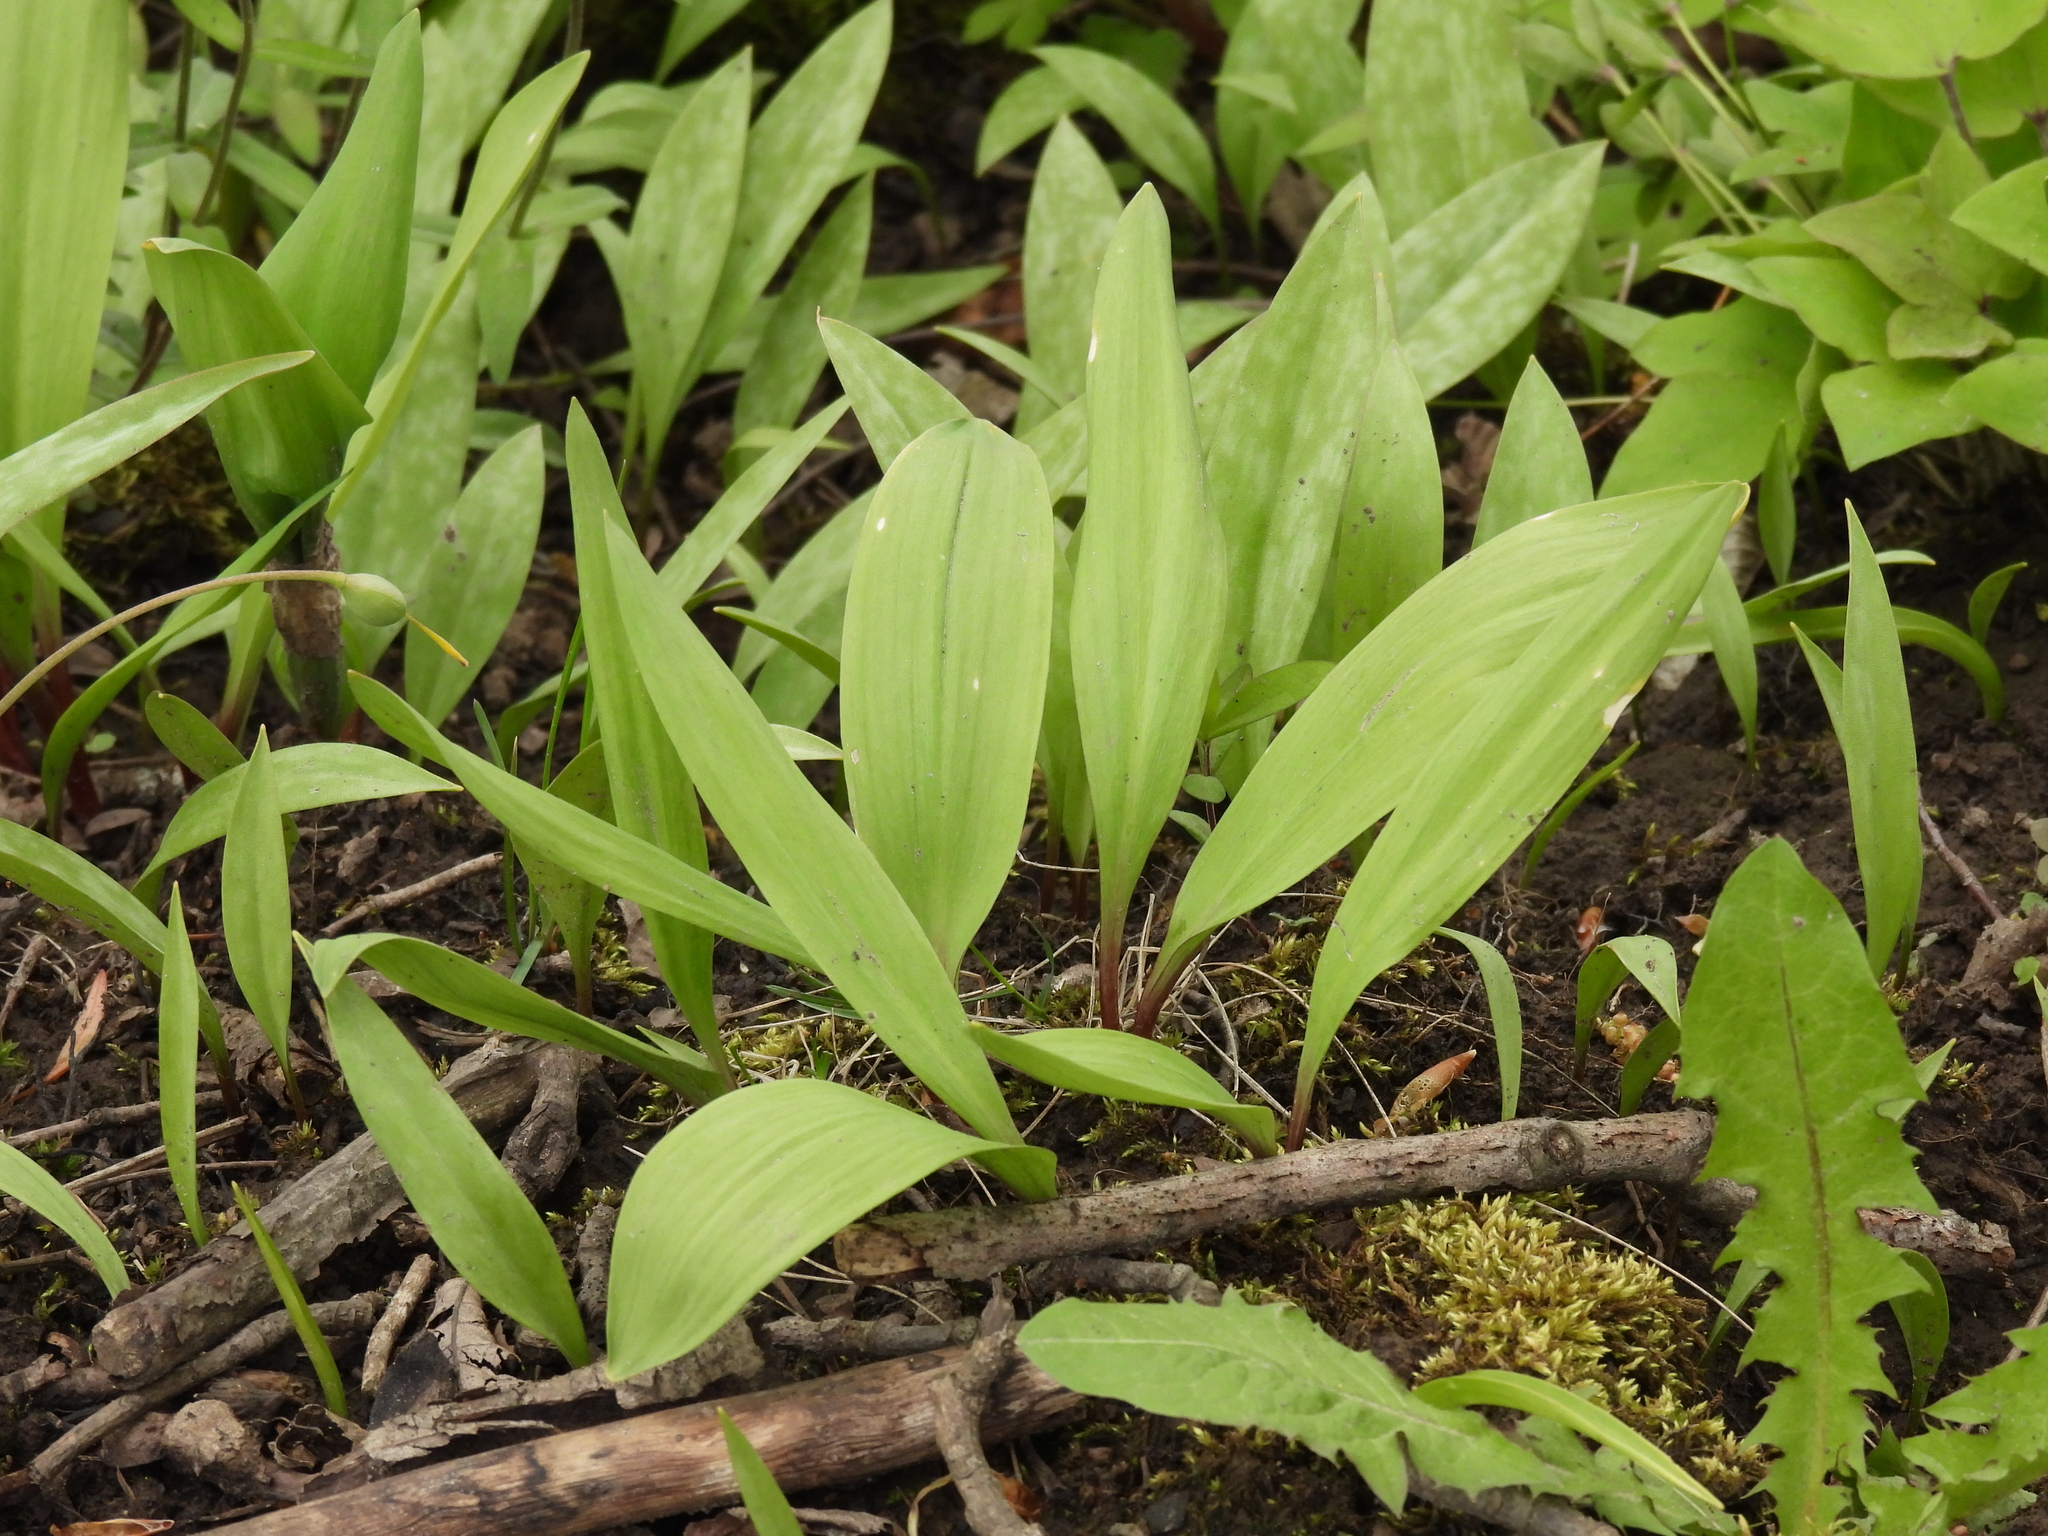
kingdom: Plantae
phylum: Tracheophyta
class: Liliopsida
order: Asparagales
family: Amaryllidaceae
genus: Allium
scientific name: Allium tricoccum
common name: Ramp
